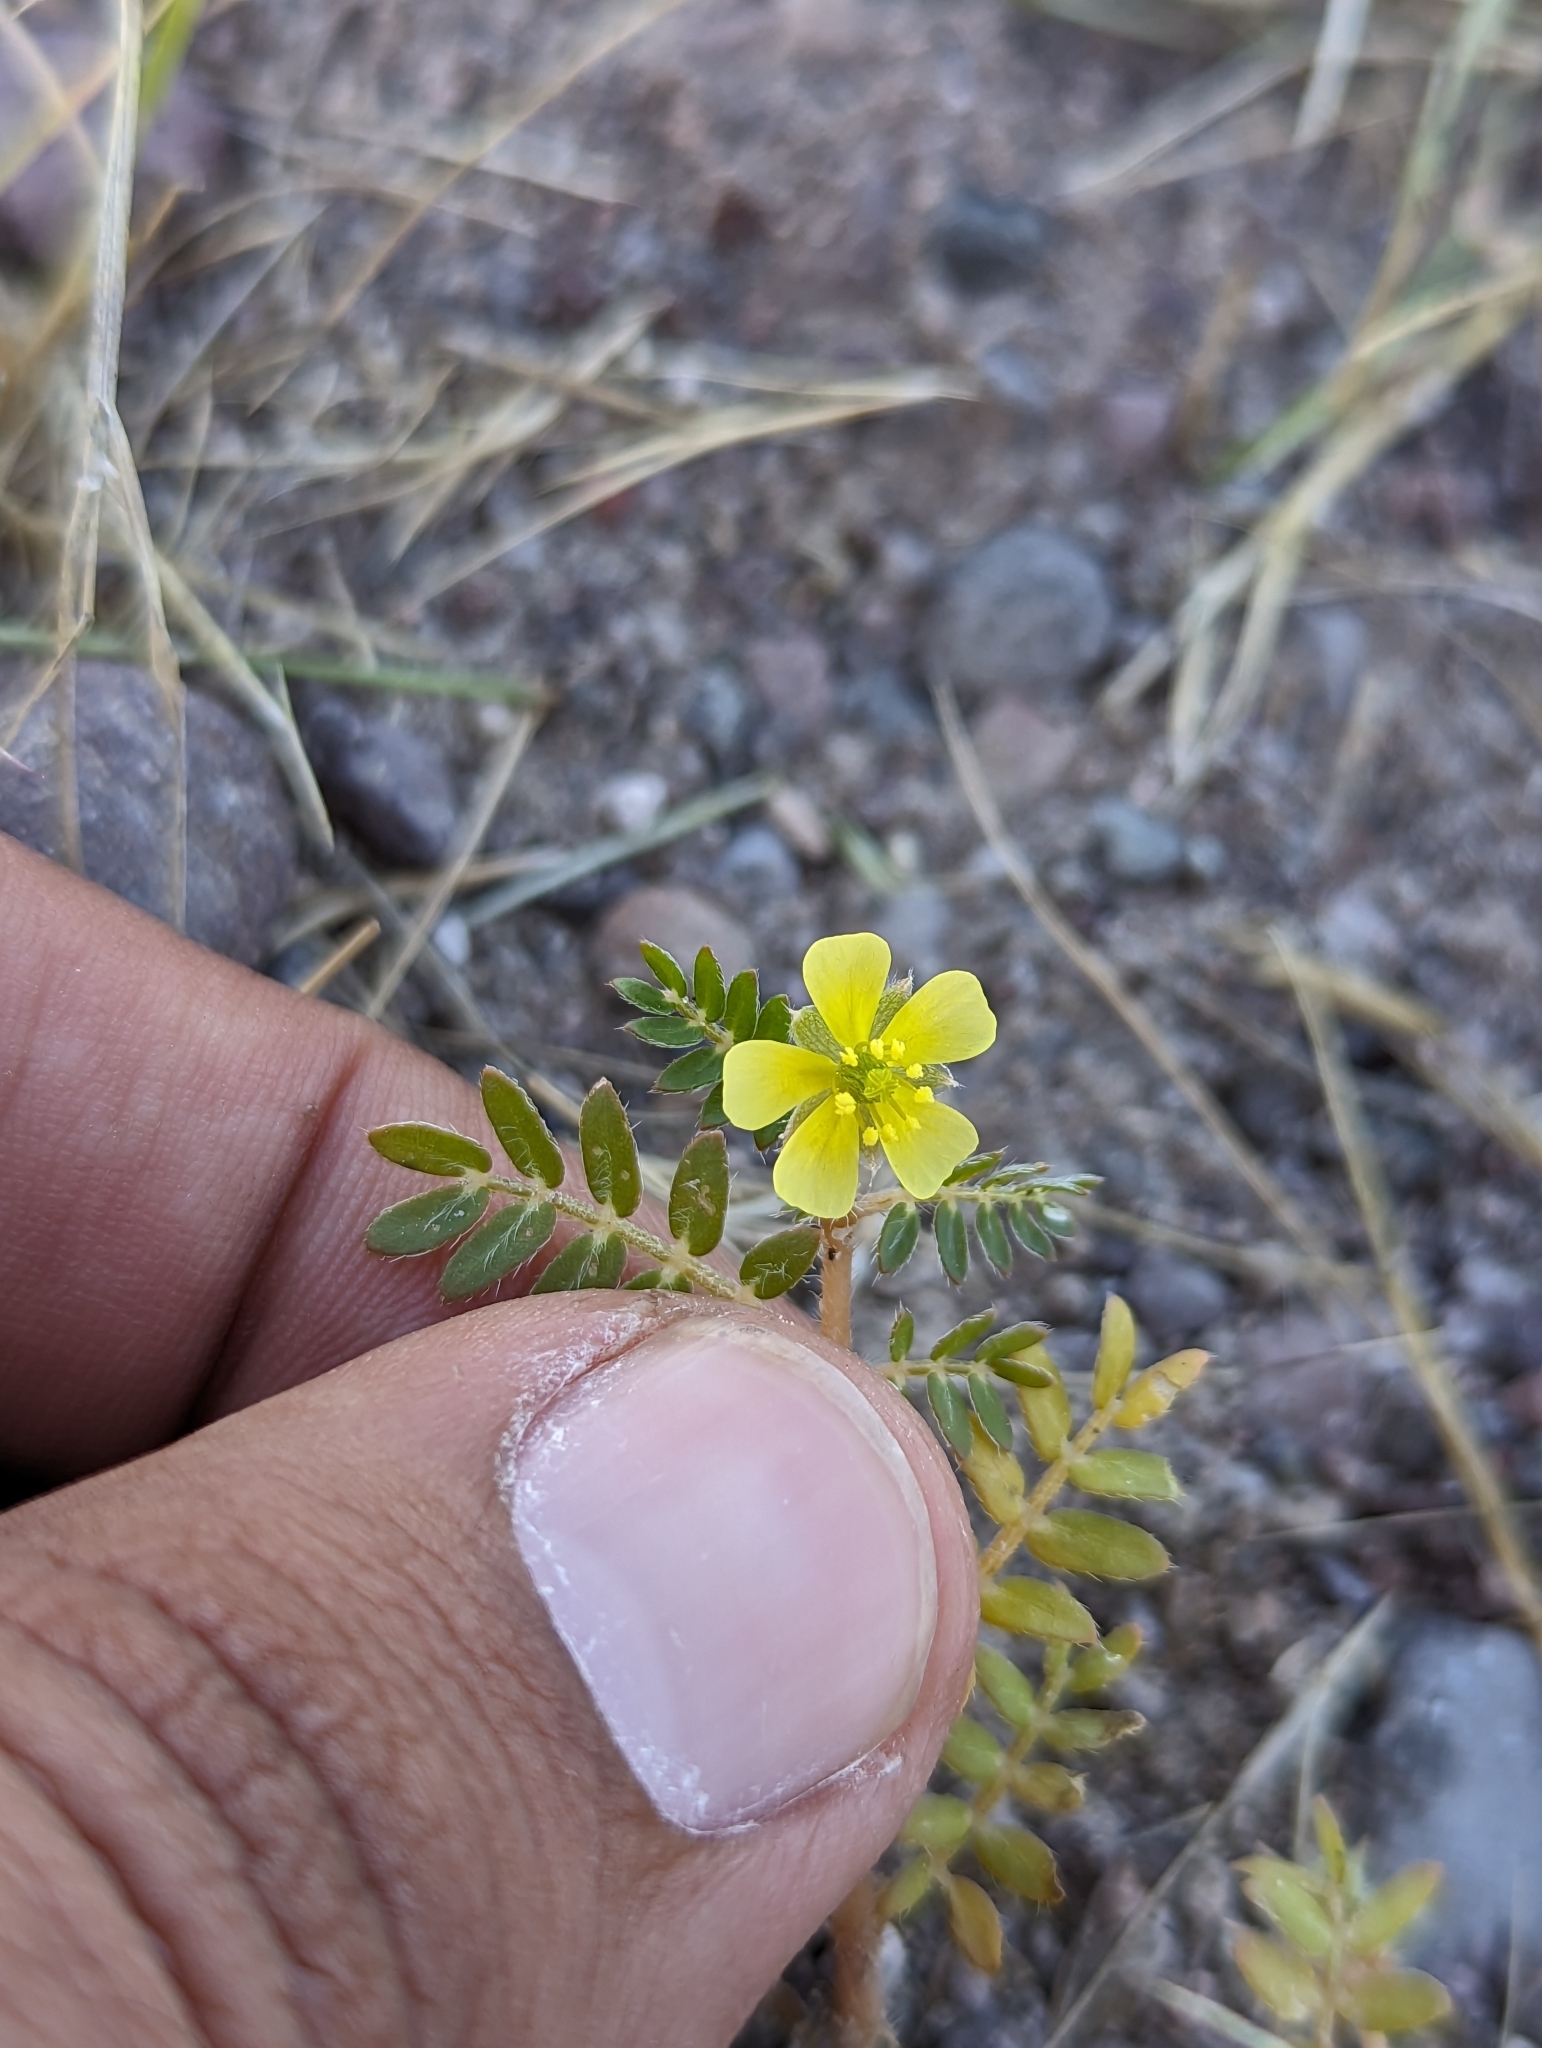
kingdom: Plantae
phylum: Tracheophyta
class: Magnoliopsida
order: Zygophyllales
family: Zygophyllaceae
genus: Tribulus
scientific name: Tribulus terrestris
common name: Puncturevine
